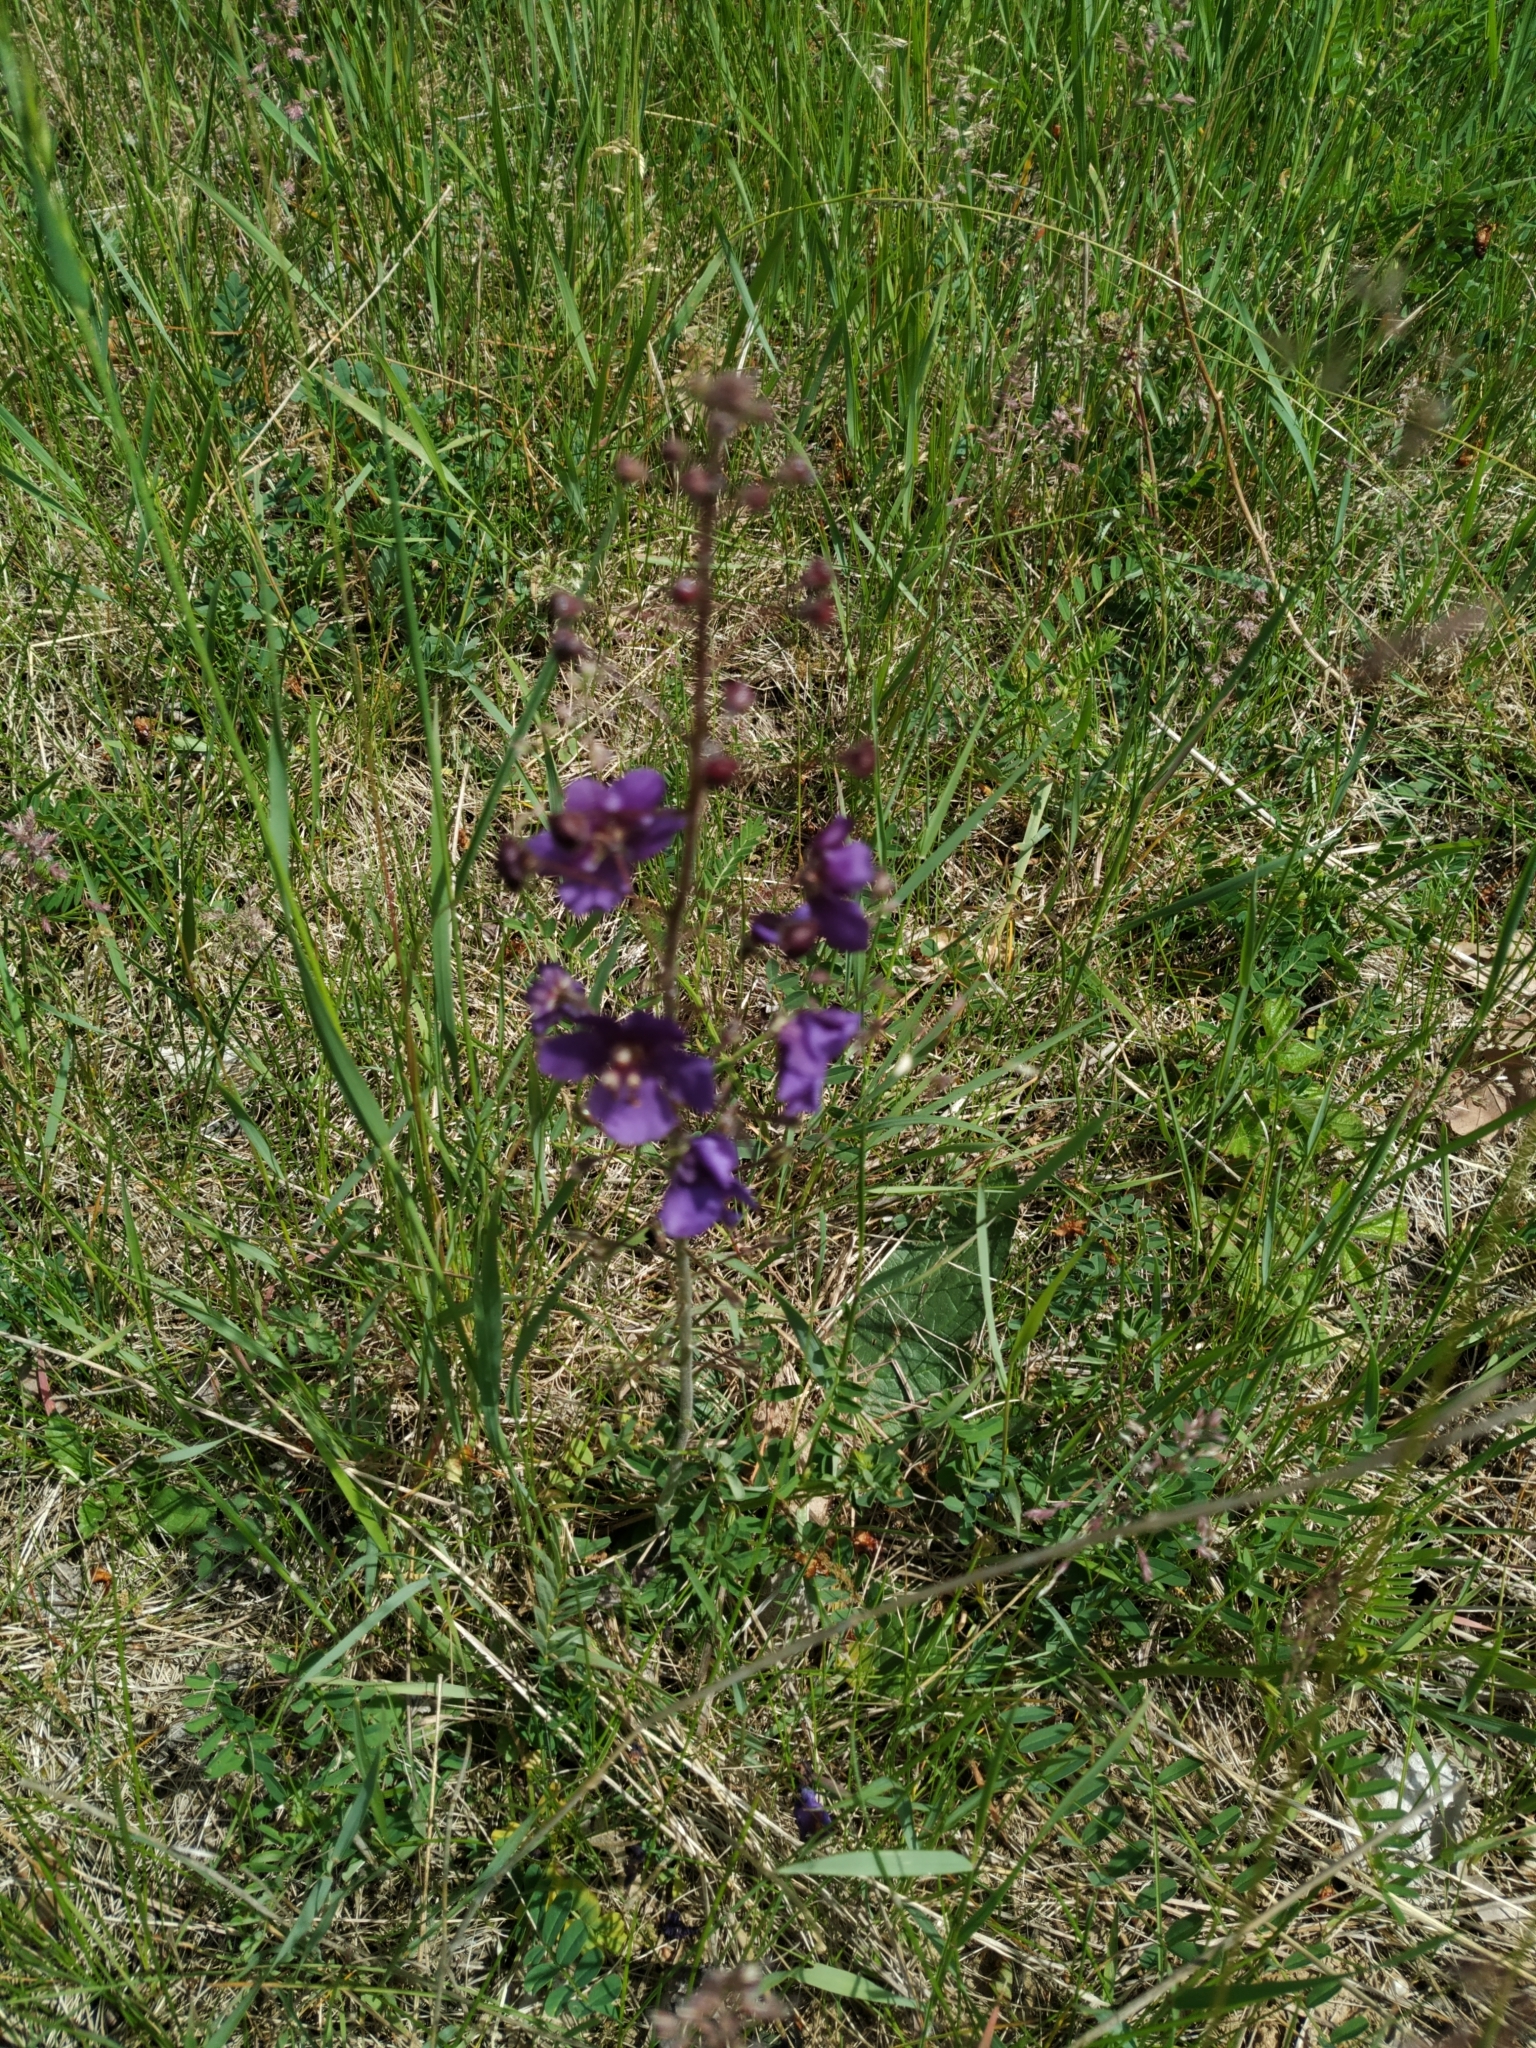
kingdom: Plantae
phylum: Tracheophyta
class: Magnoliopsida
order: Lamiales
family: Scrophulariaceae
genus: Verbascum
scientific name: Verbascum phoeniceum
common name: Purple mullein
